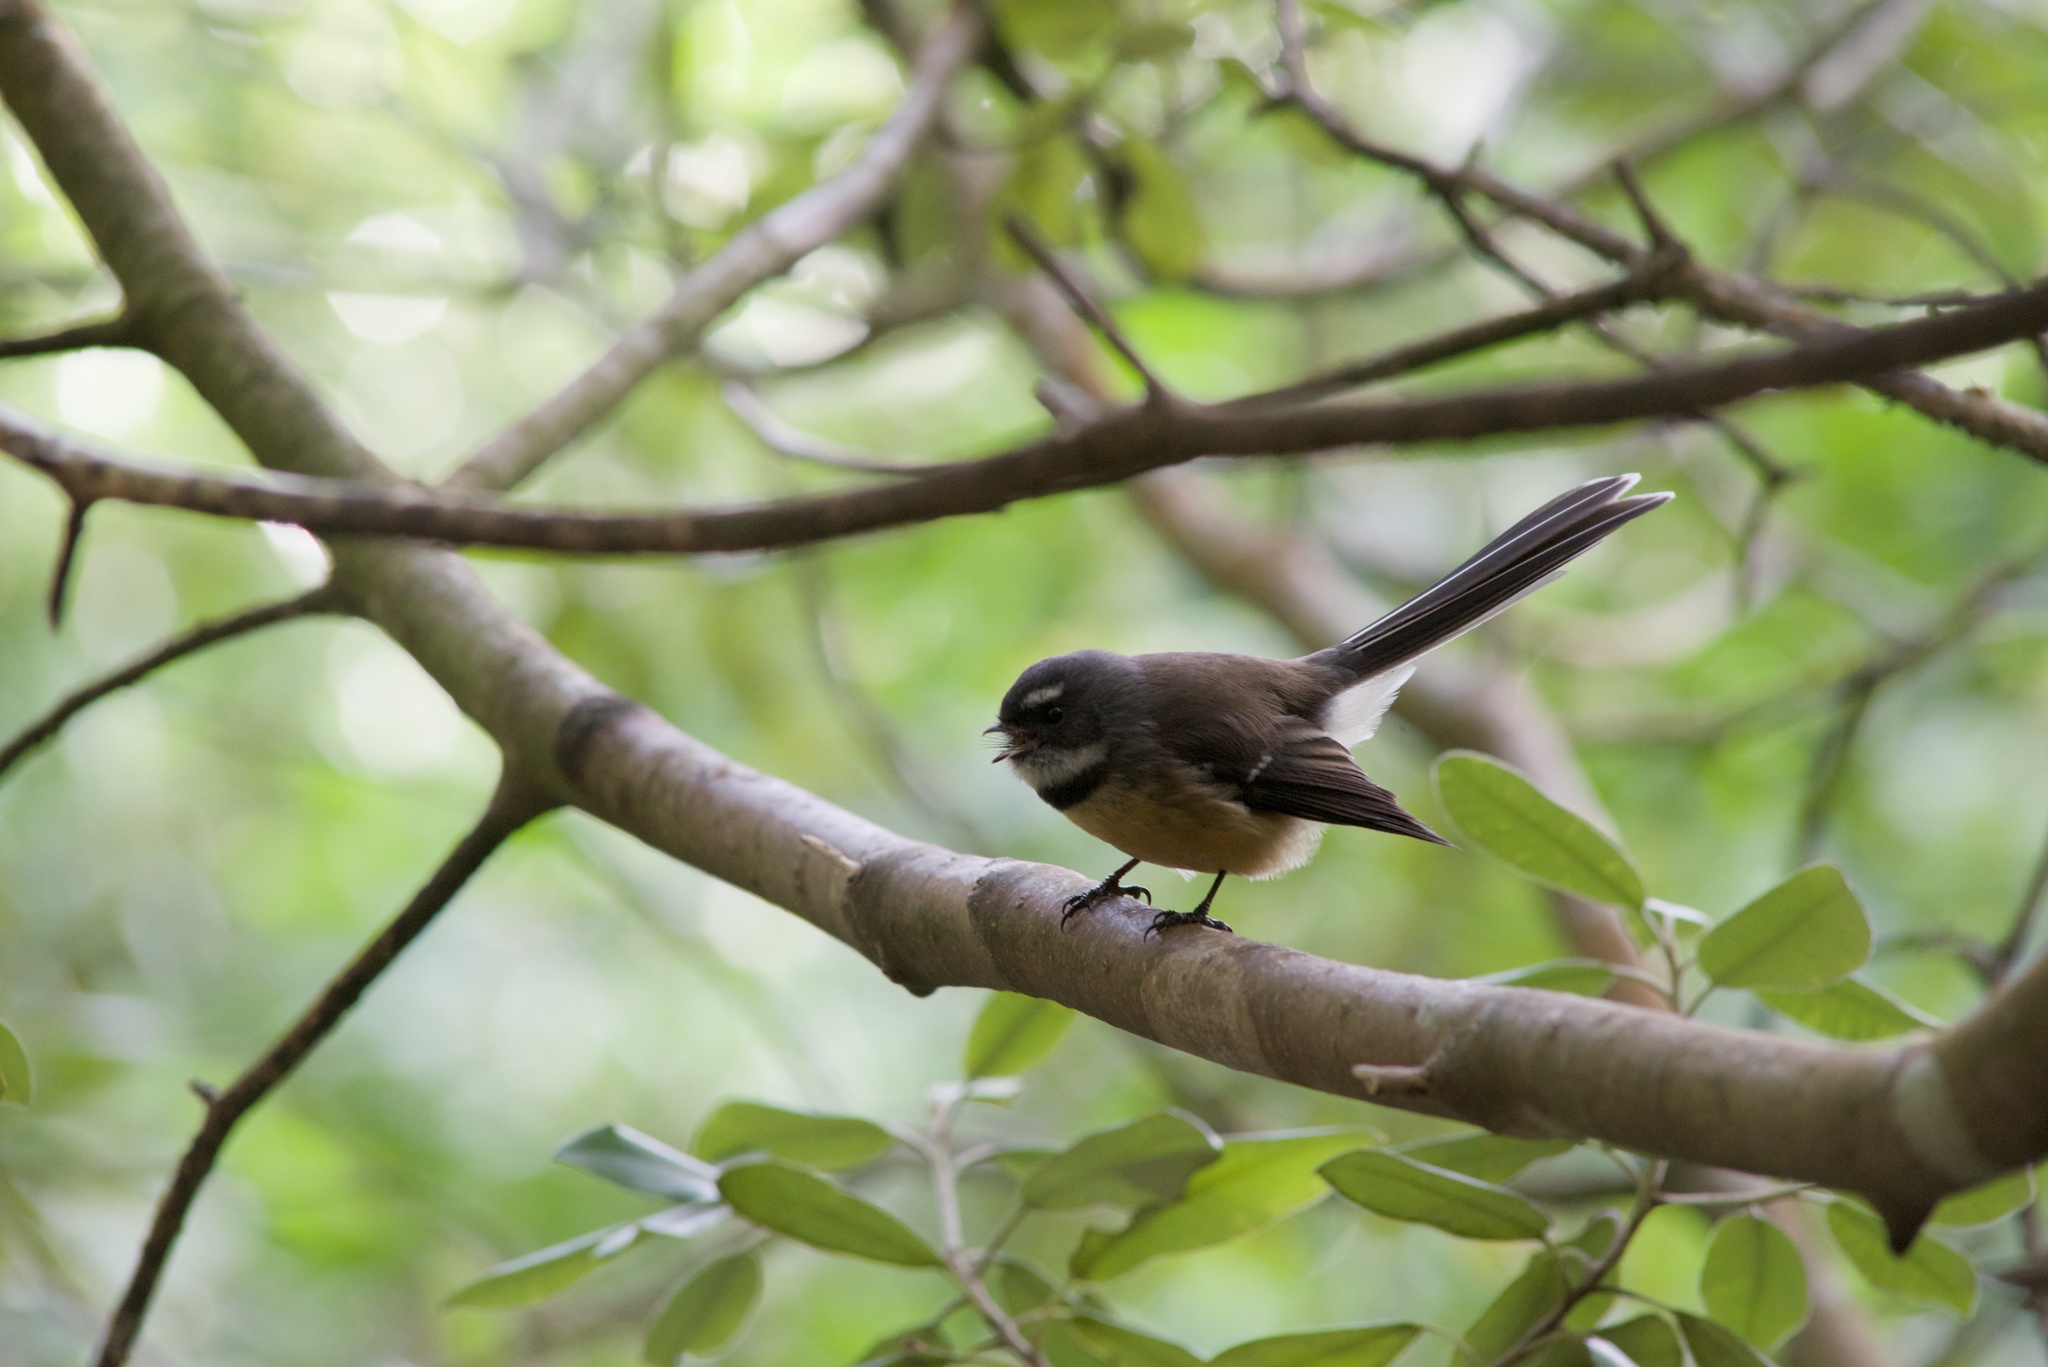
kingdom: Animalia
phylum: Chordata
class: Aves
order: Passeriformes
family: Rhipiduridae
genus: Rhipidura
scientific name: Rhipidura fuliginosa
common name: New zealand fantail
